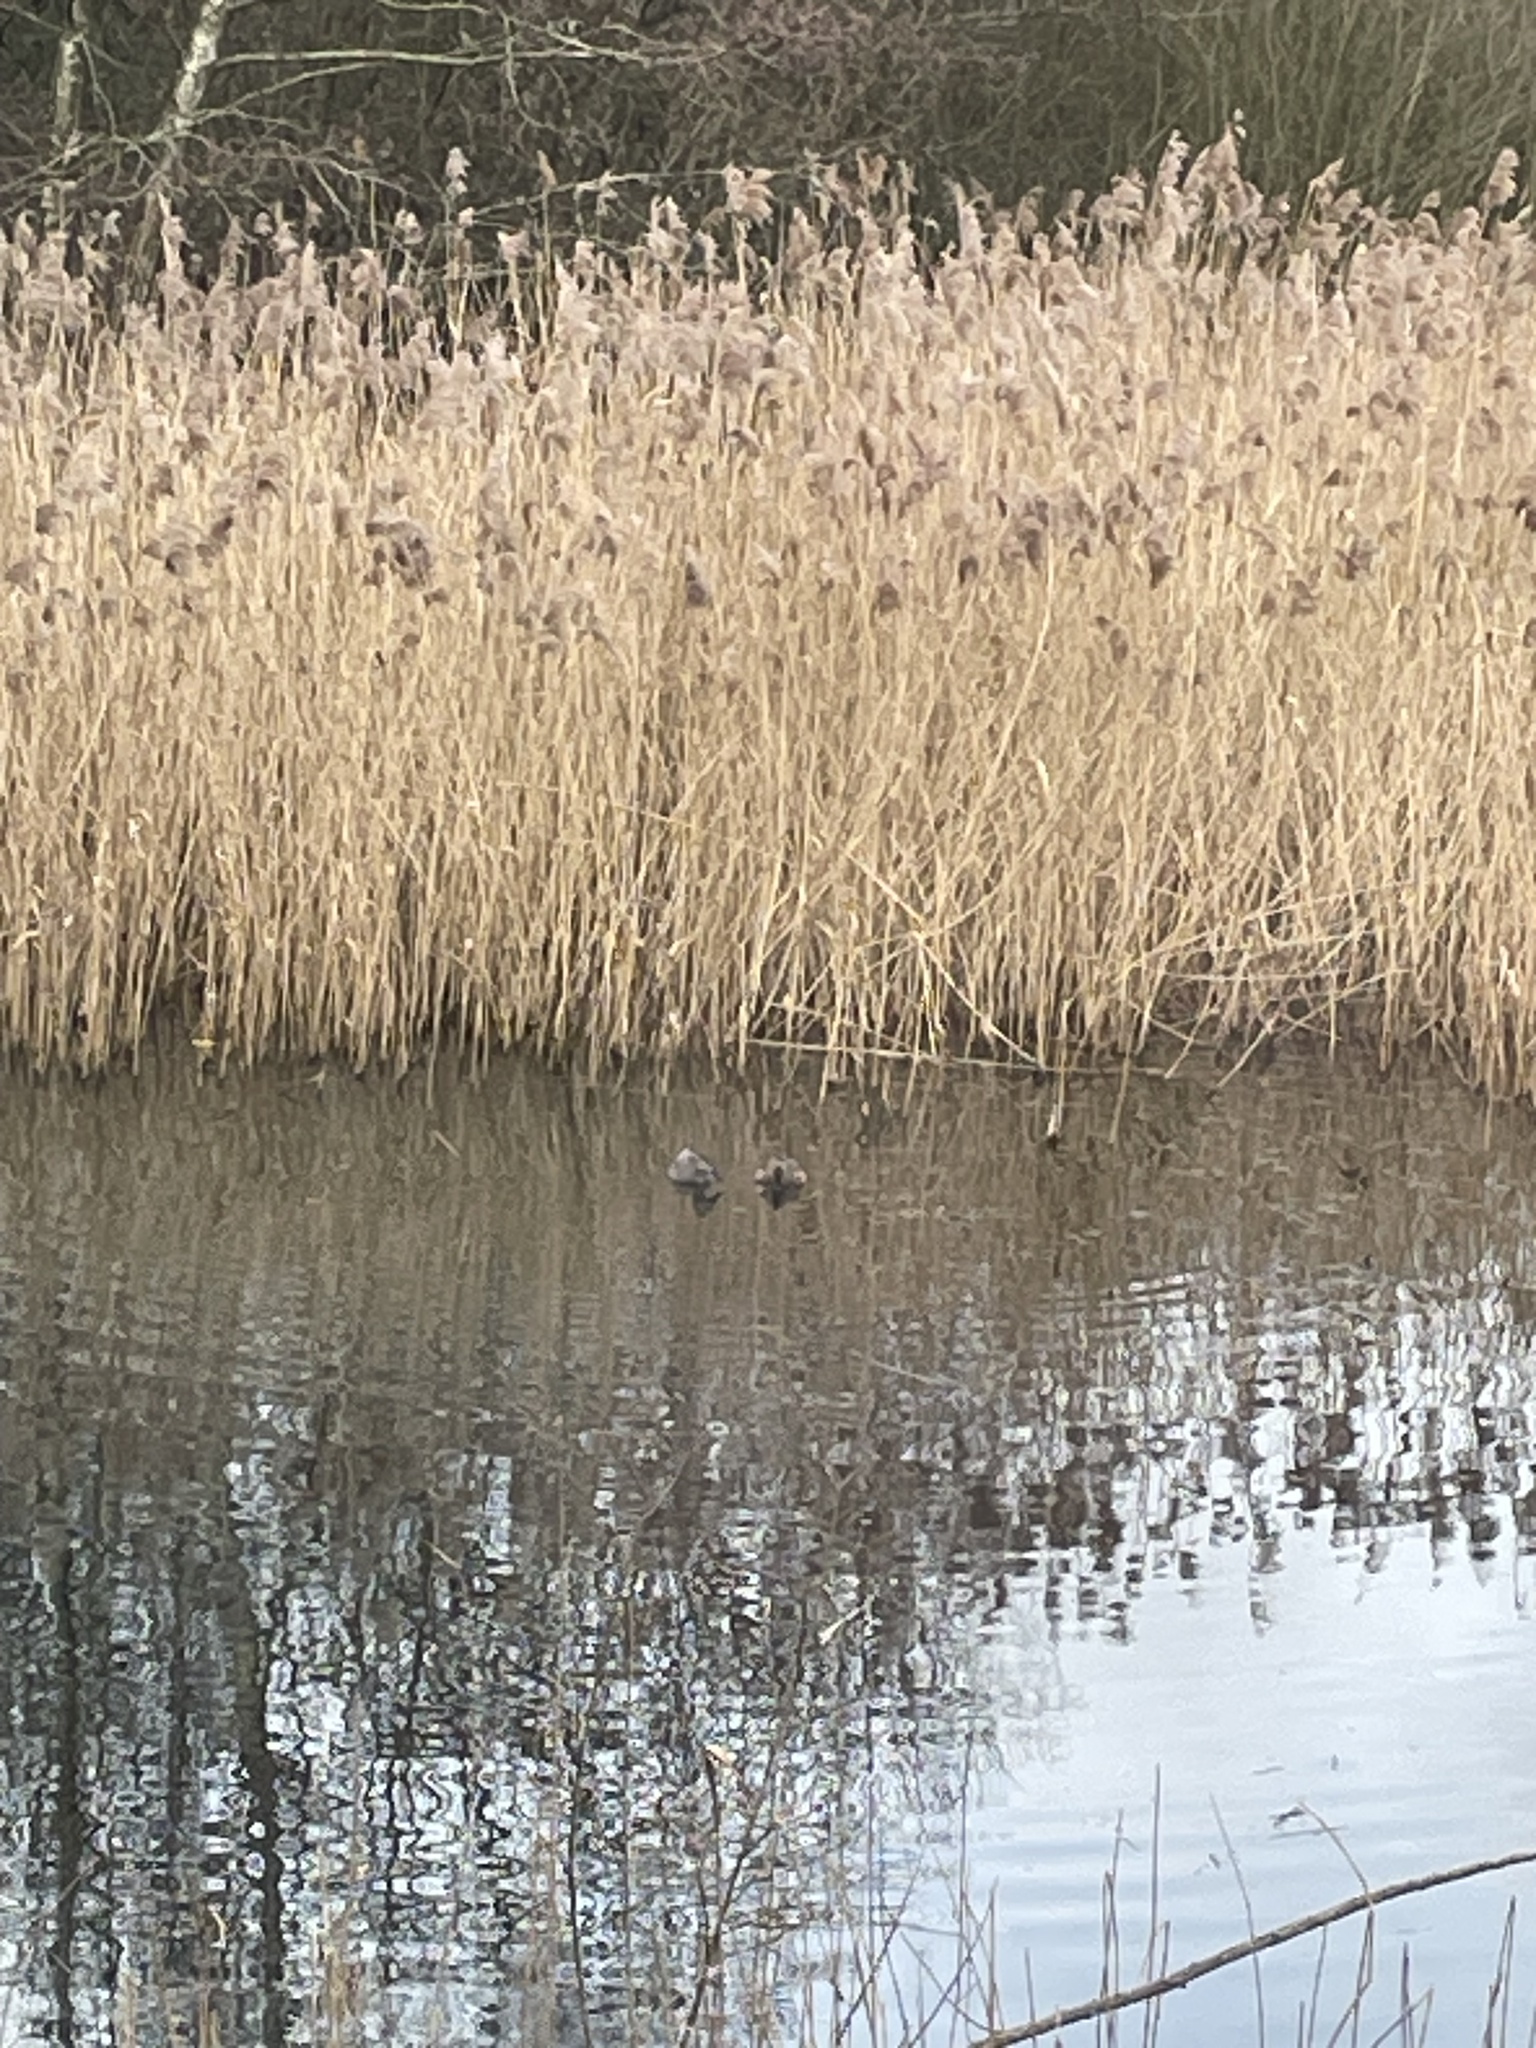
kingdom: Animalia
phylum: Chordata
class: Aves
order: Anseriformes
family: Anatidae
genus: Mareca
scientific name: Mareca strepera
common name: Gadwall
